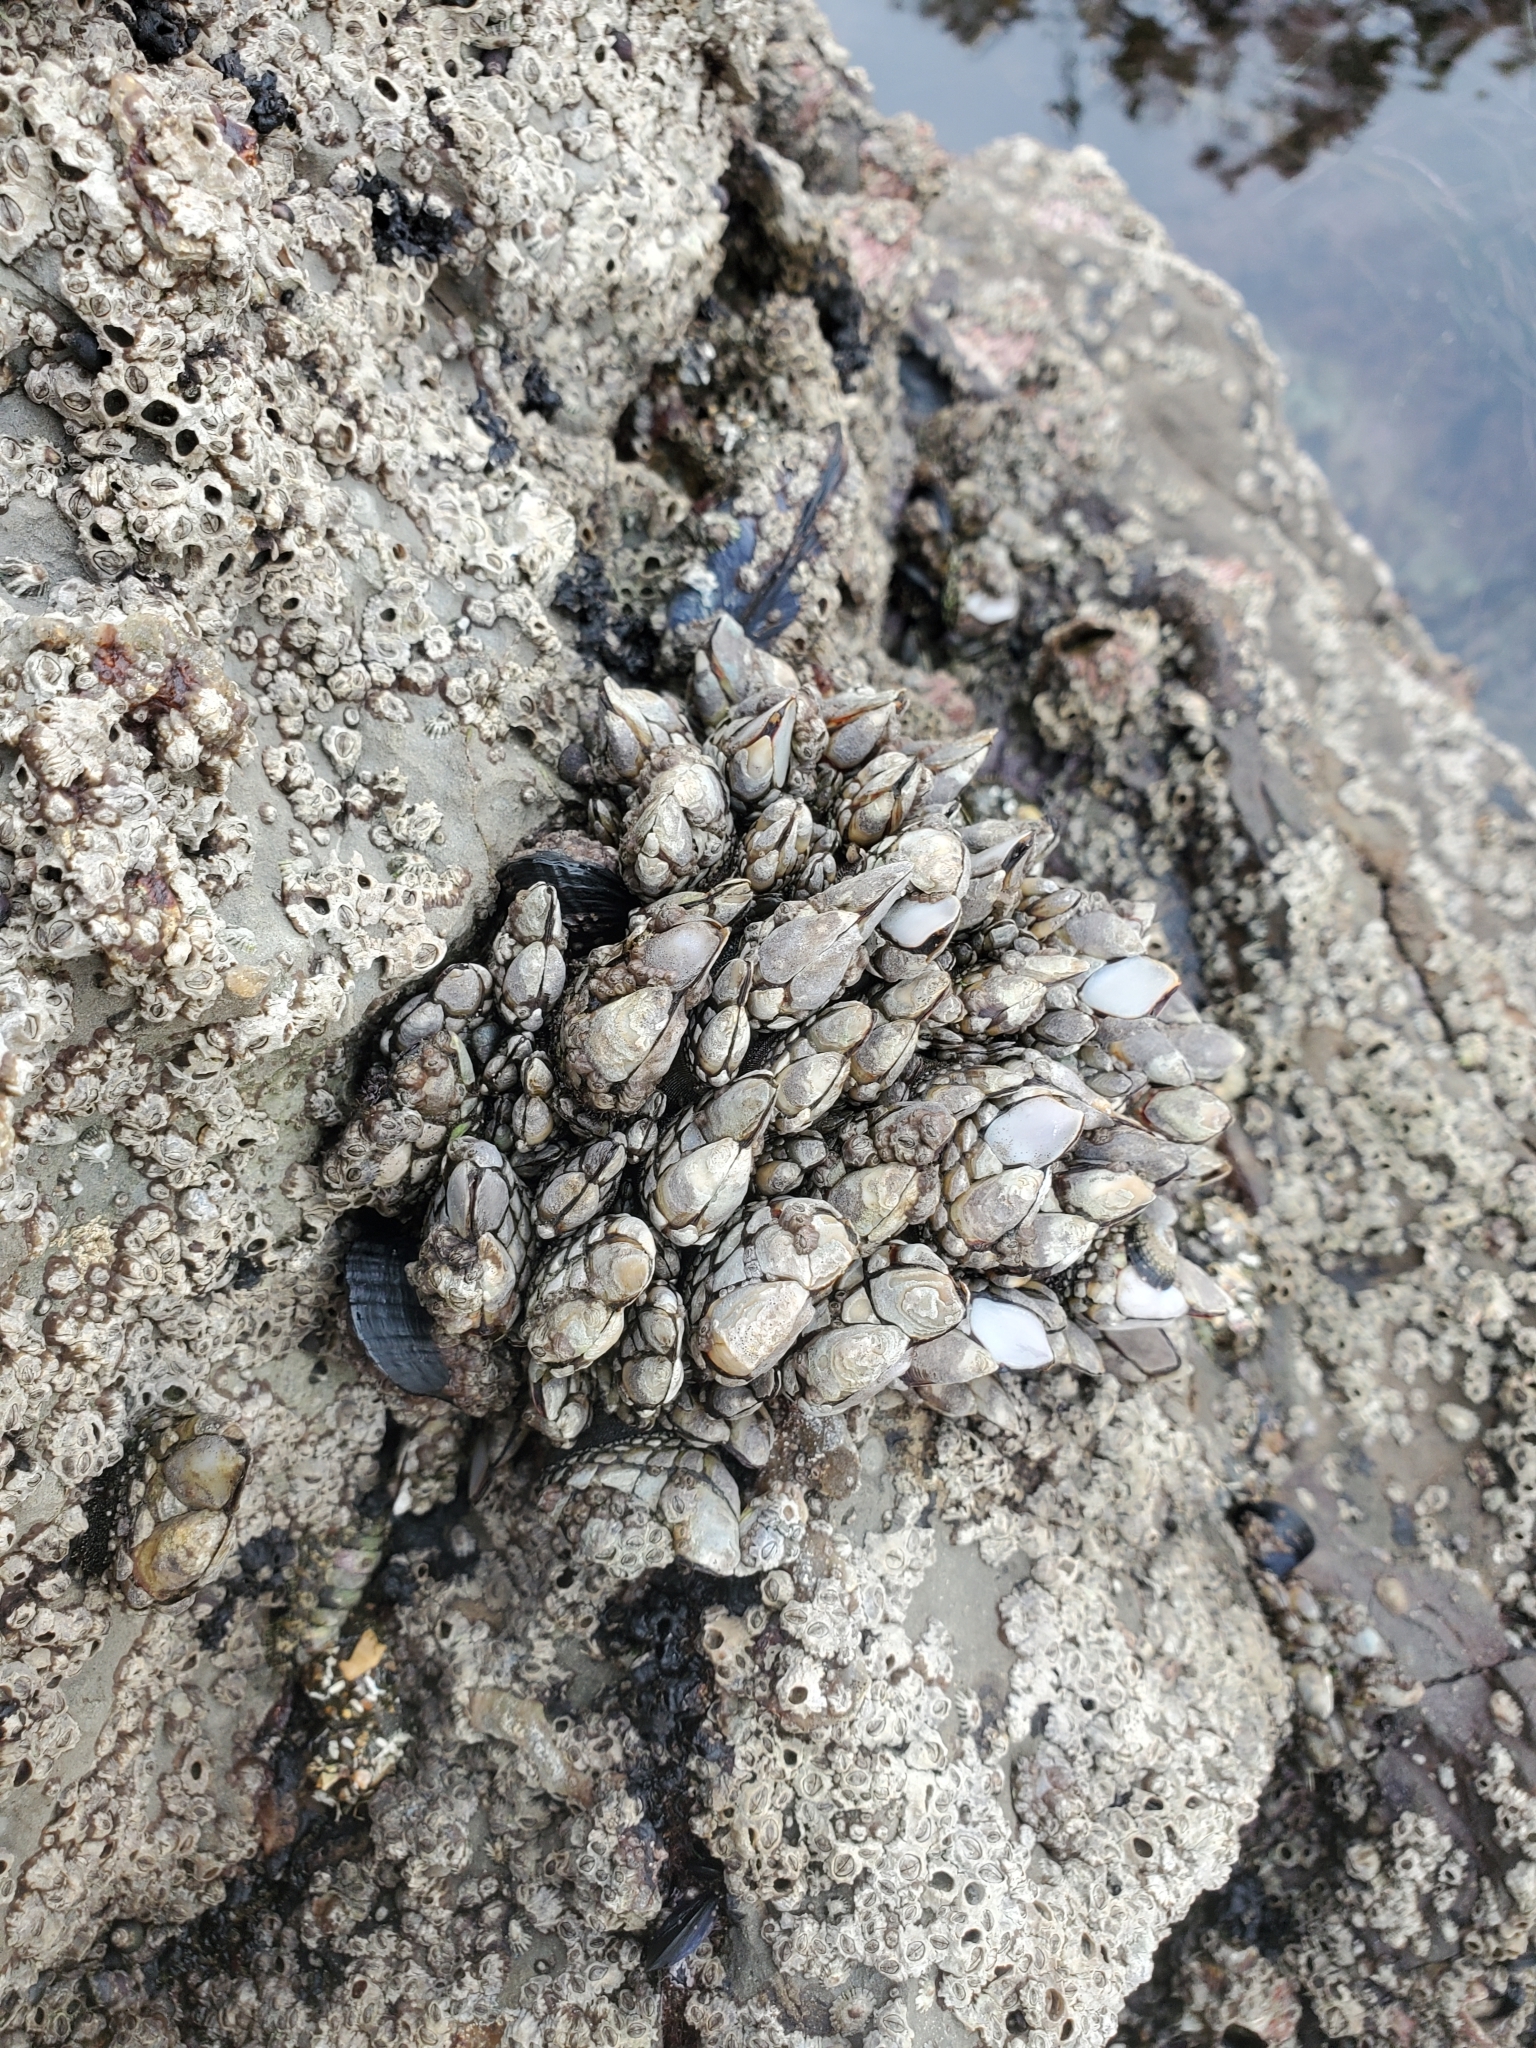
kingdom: Animalia
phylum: Arthropoda
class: Maxillopoda
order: Pedunculata
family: Pollicipedidae
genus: Pollicipes
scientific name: Pollicipes polymerus
